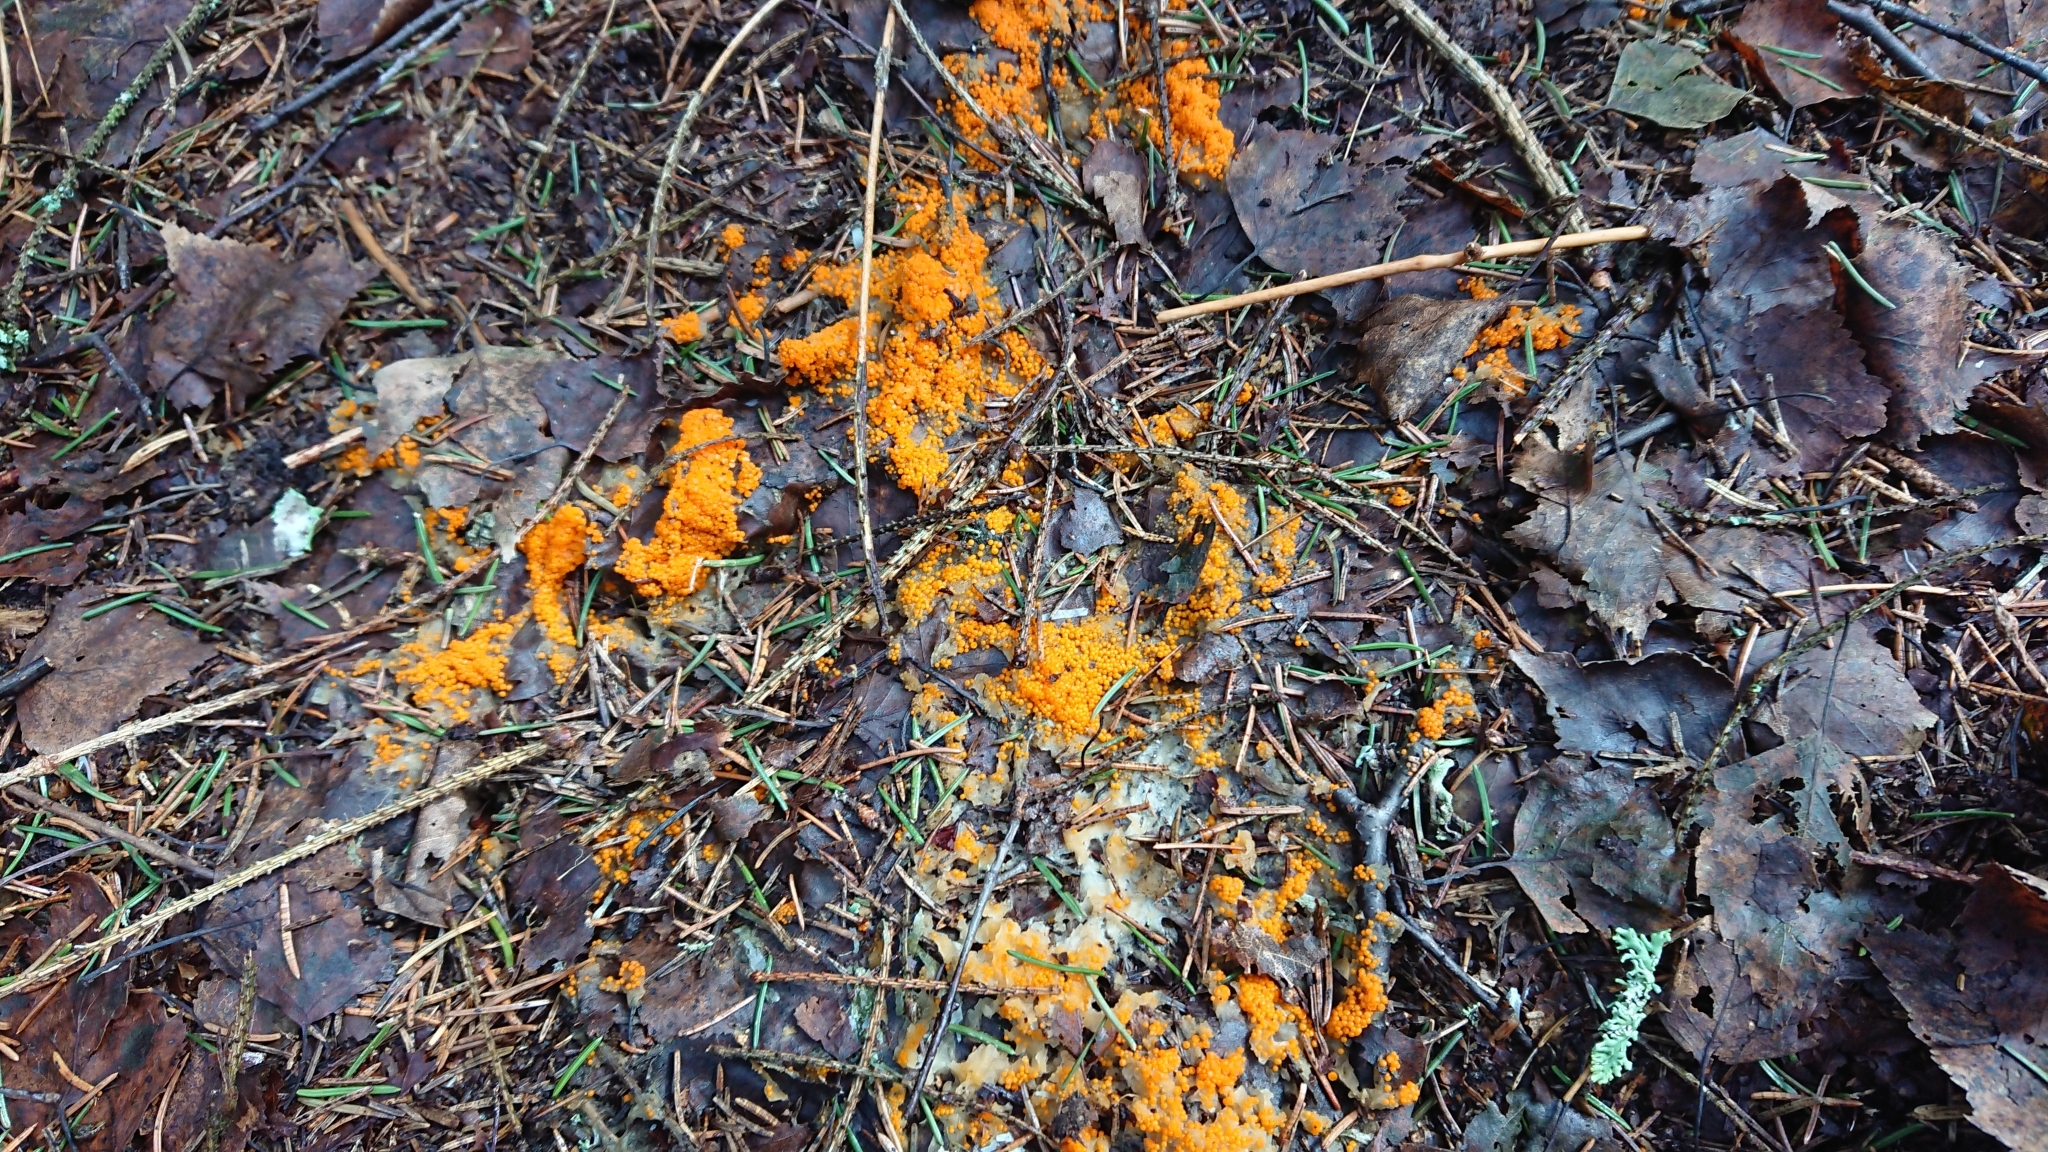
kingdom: Fungi
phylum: Ascomycota
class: Pezizomycetes
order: Pezizales
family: Pyronemataceae
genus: Byssonectria
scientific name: Byssonectria terrestris
